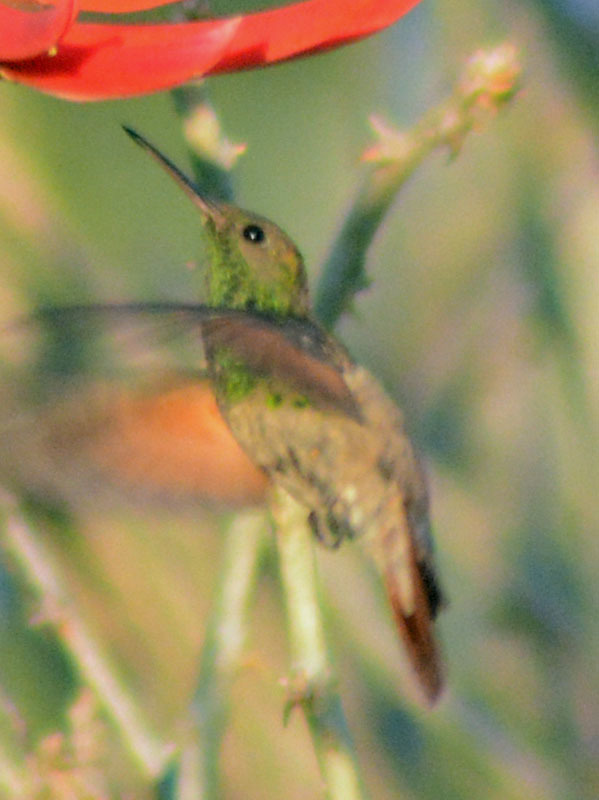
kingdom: Animalia
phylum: Chordata
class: Aves
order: Apodiformes
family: Trochilidae
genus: Saucerottia
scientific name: Saucerottia beryllina
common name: Berylline hummingbird
